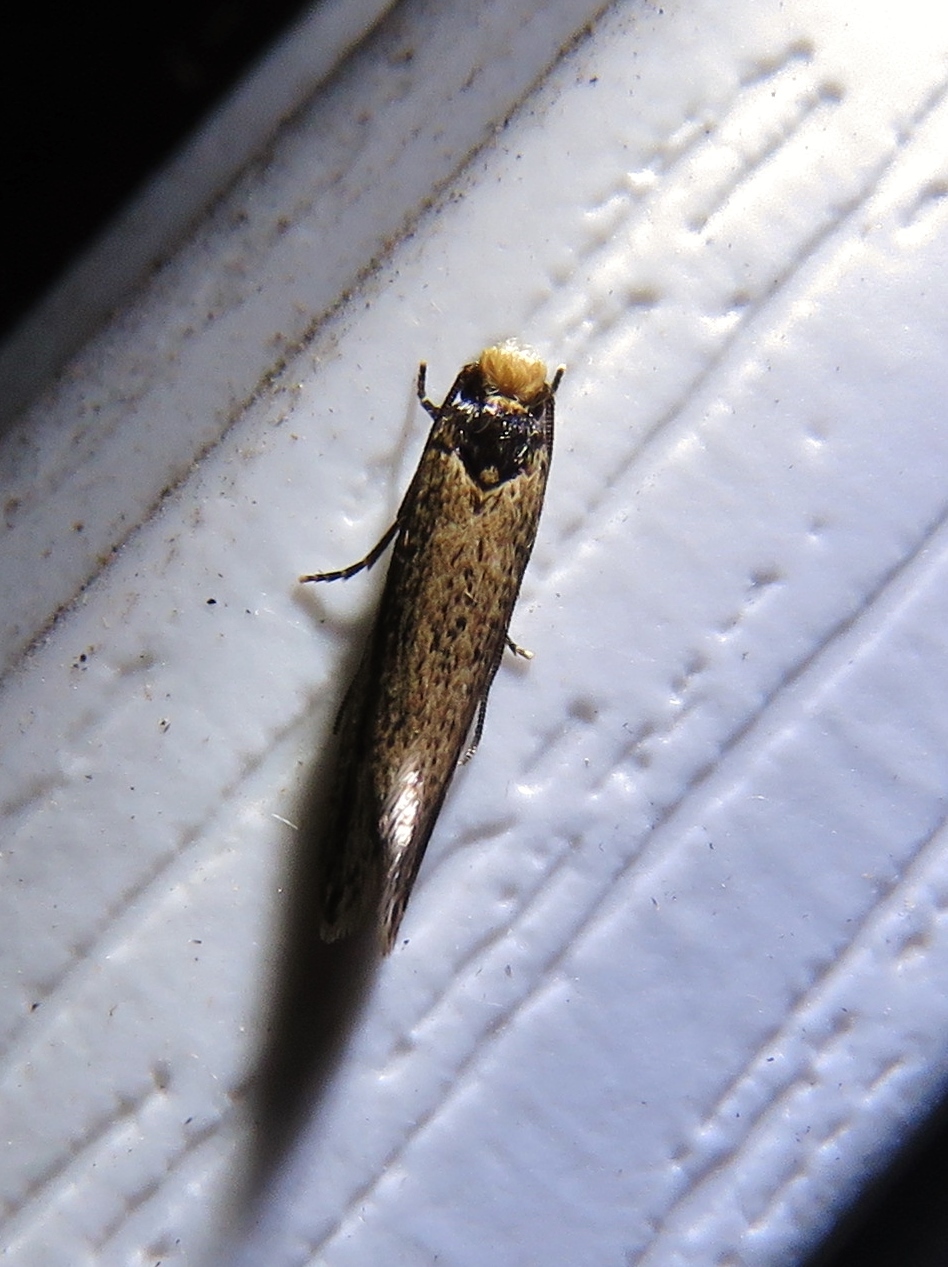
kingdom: Animalia
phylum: Arthropoda
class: Insecta
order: Lepidoptera
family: Tineidae
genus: Tinea
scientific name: Tinea apicimaculella
